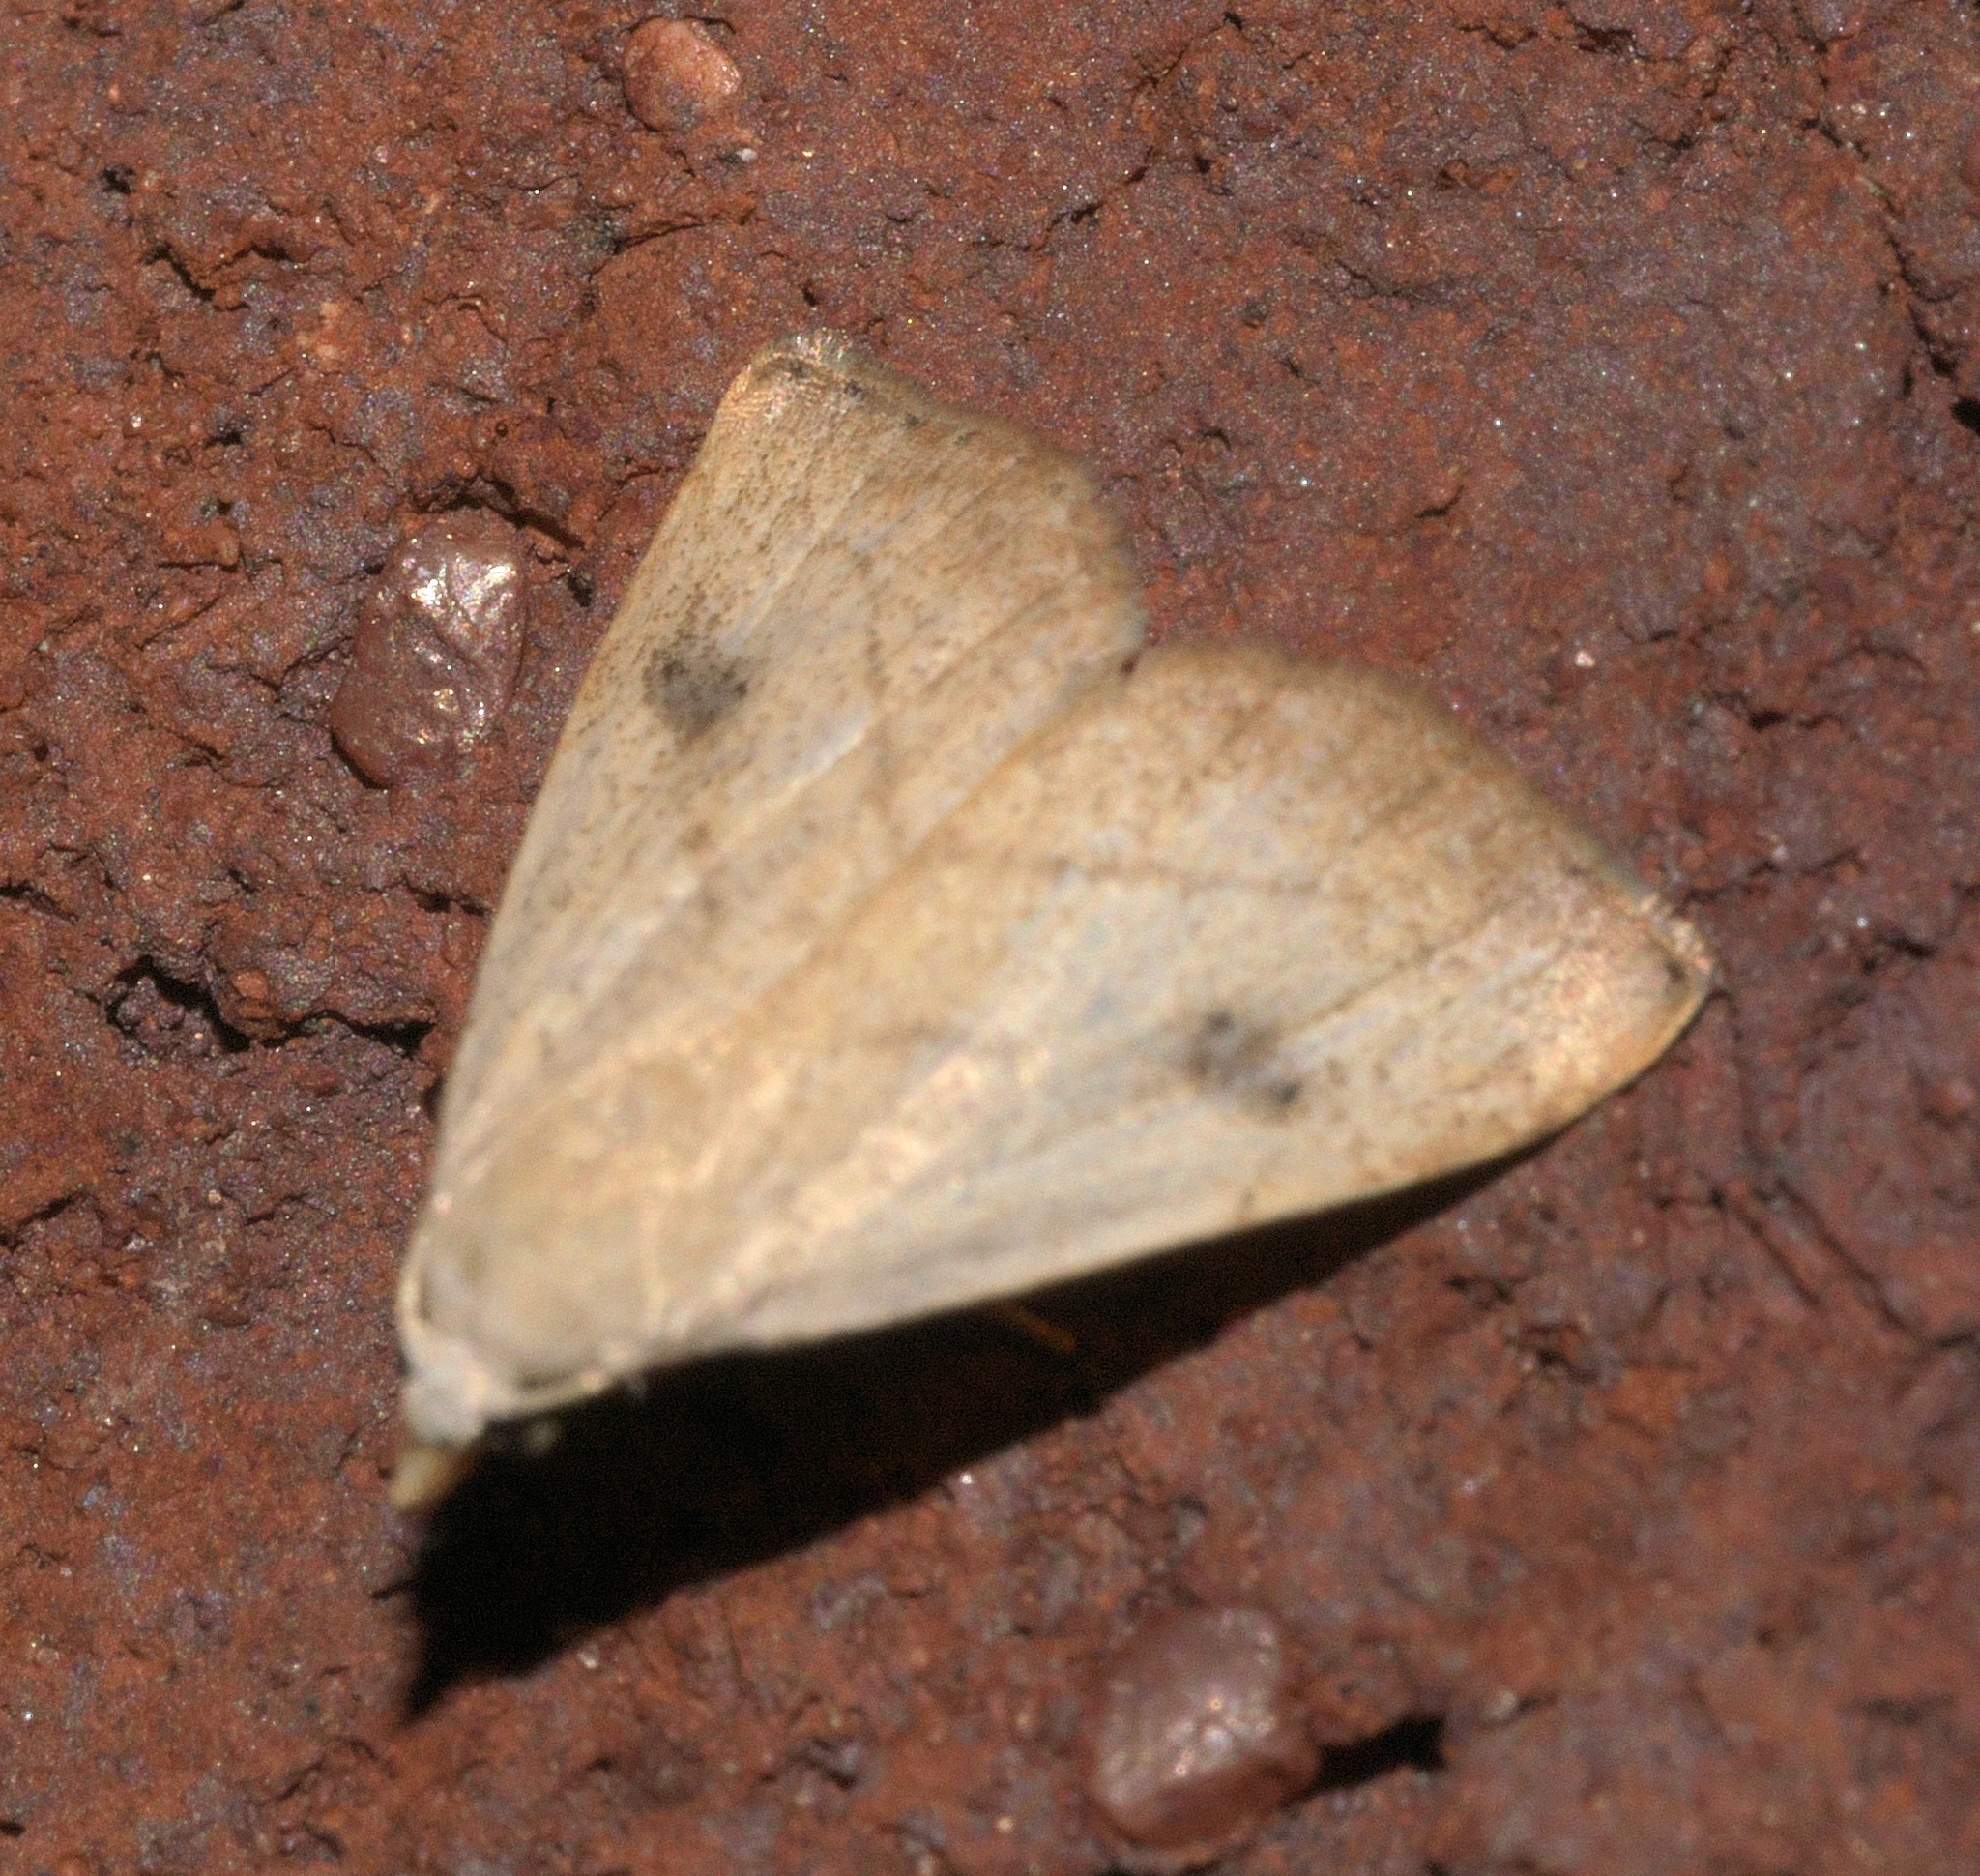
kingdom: Animalia
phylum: Arthropoda
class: Insecta
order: Lepidoptera
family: Erebidae
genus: Rivula
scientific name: Rivula propinqualis
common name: Spotted grass moth
